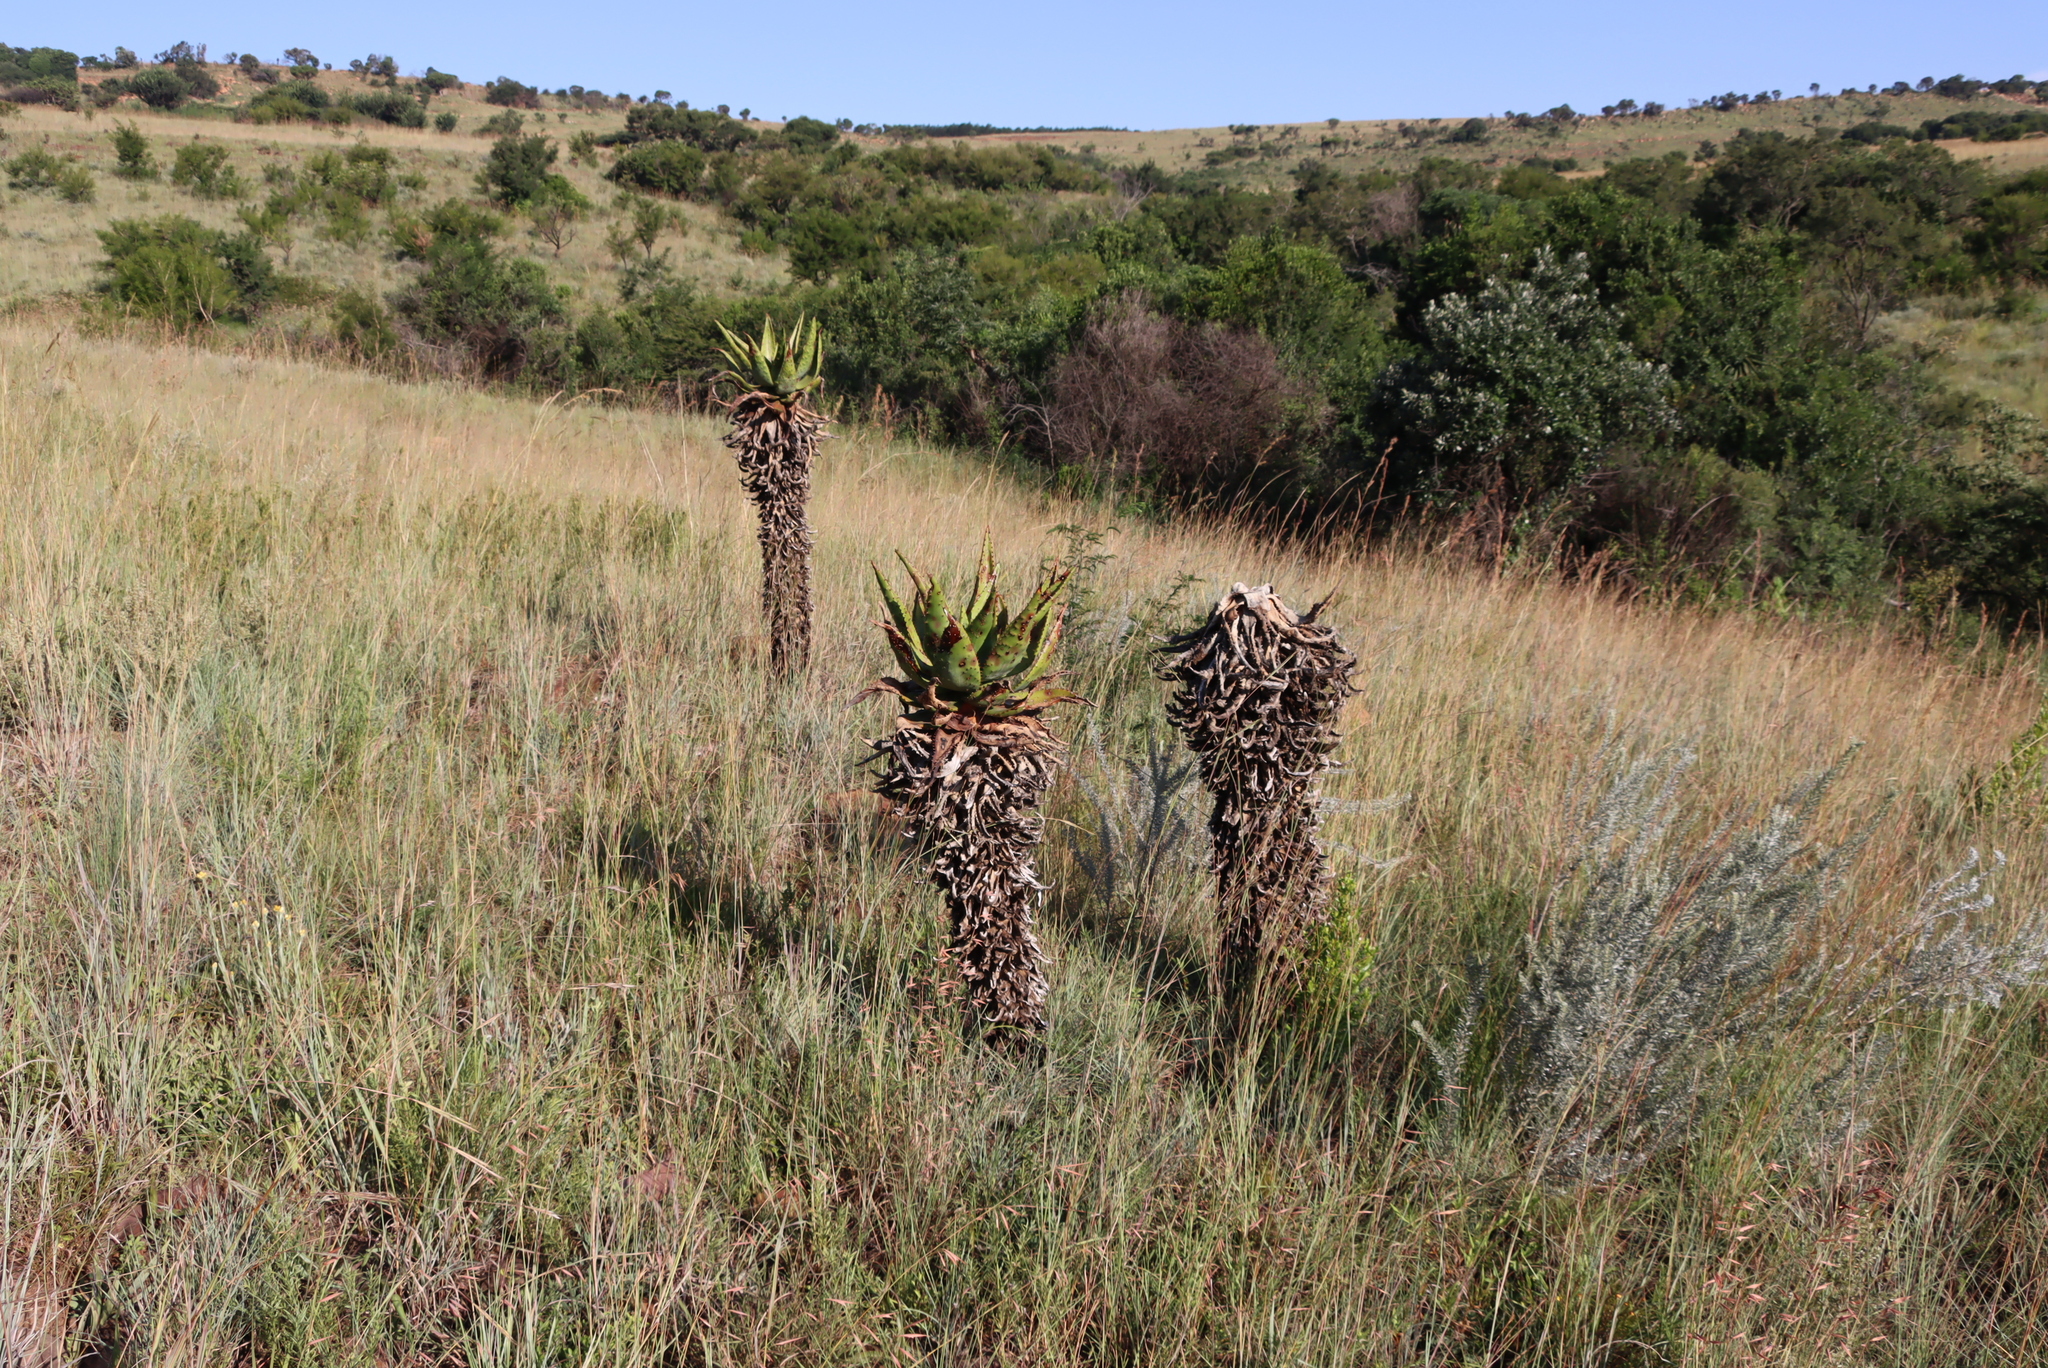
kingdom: Plantae
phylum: Tracheophyta
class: Liliopsida
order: Asparagales
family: Asphodelaceae
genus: Aloe
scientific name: Aloe marlothii
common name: Flat-flowered aloe
